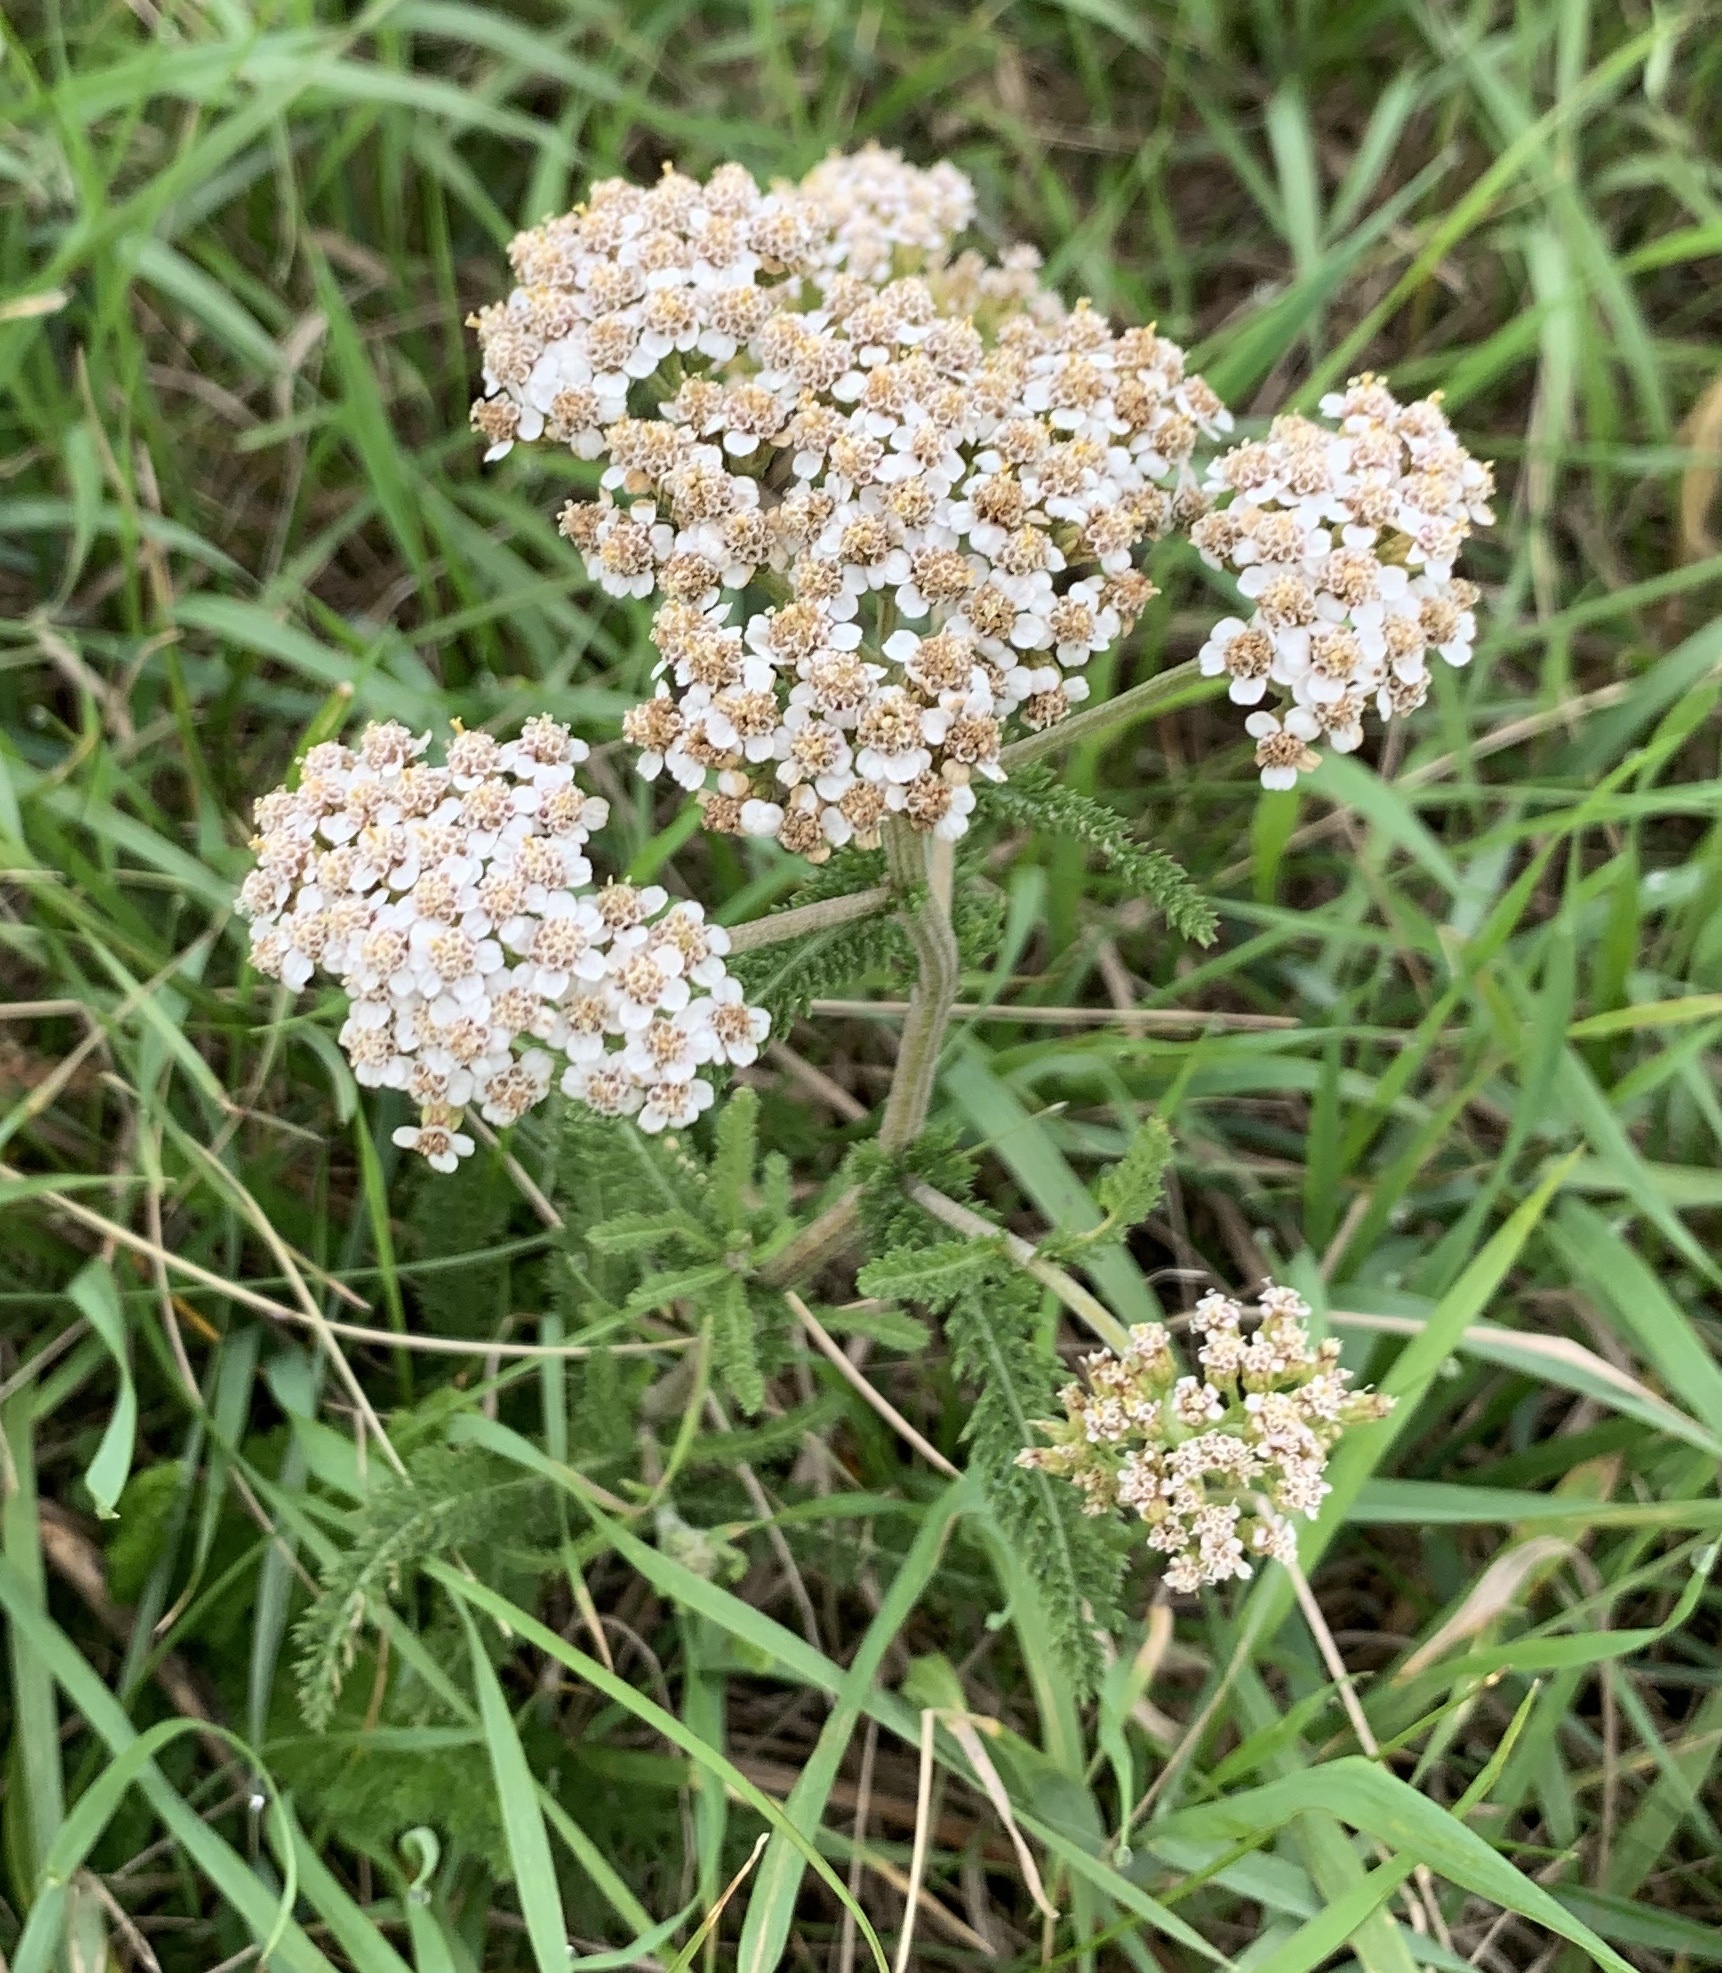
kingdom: Plantae
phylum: Tracheophyta
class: Magnoliopsida
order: Asterales
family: Asteraceae
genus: Achillea
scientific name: Achillea millefolium
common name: Yarrow
